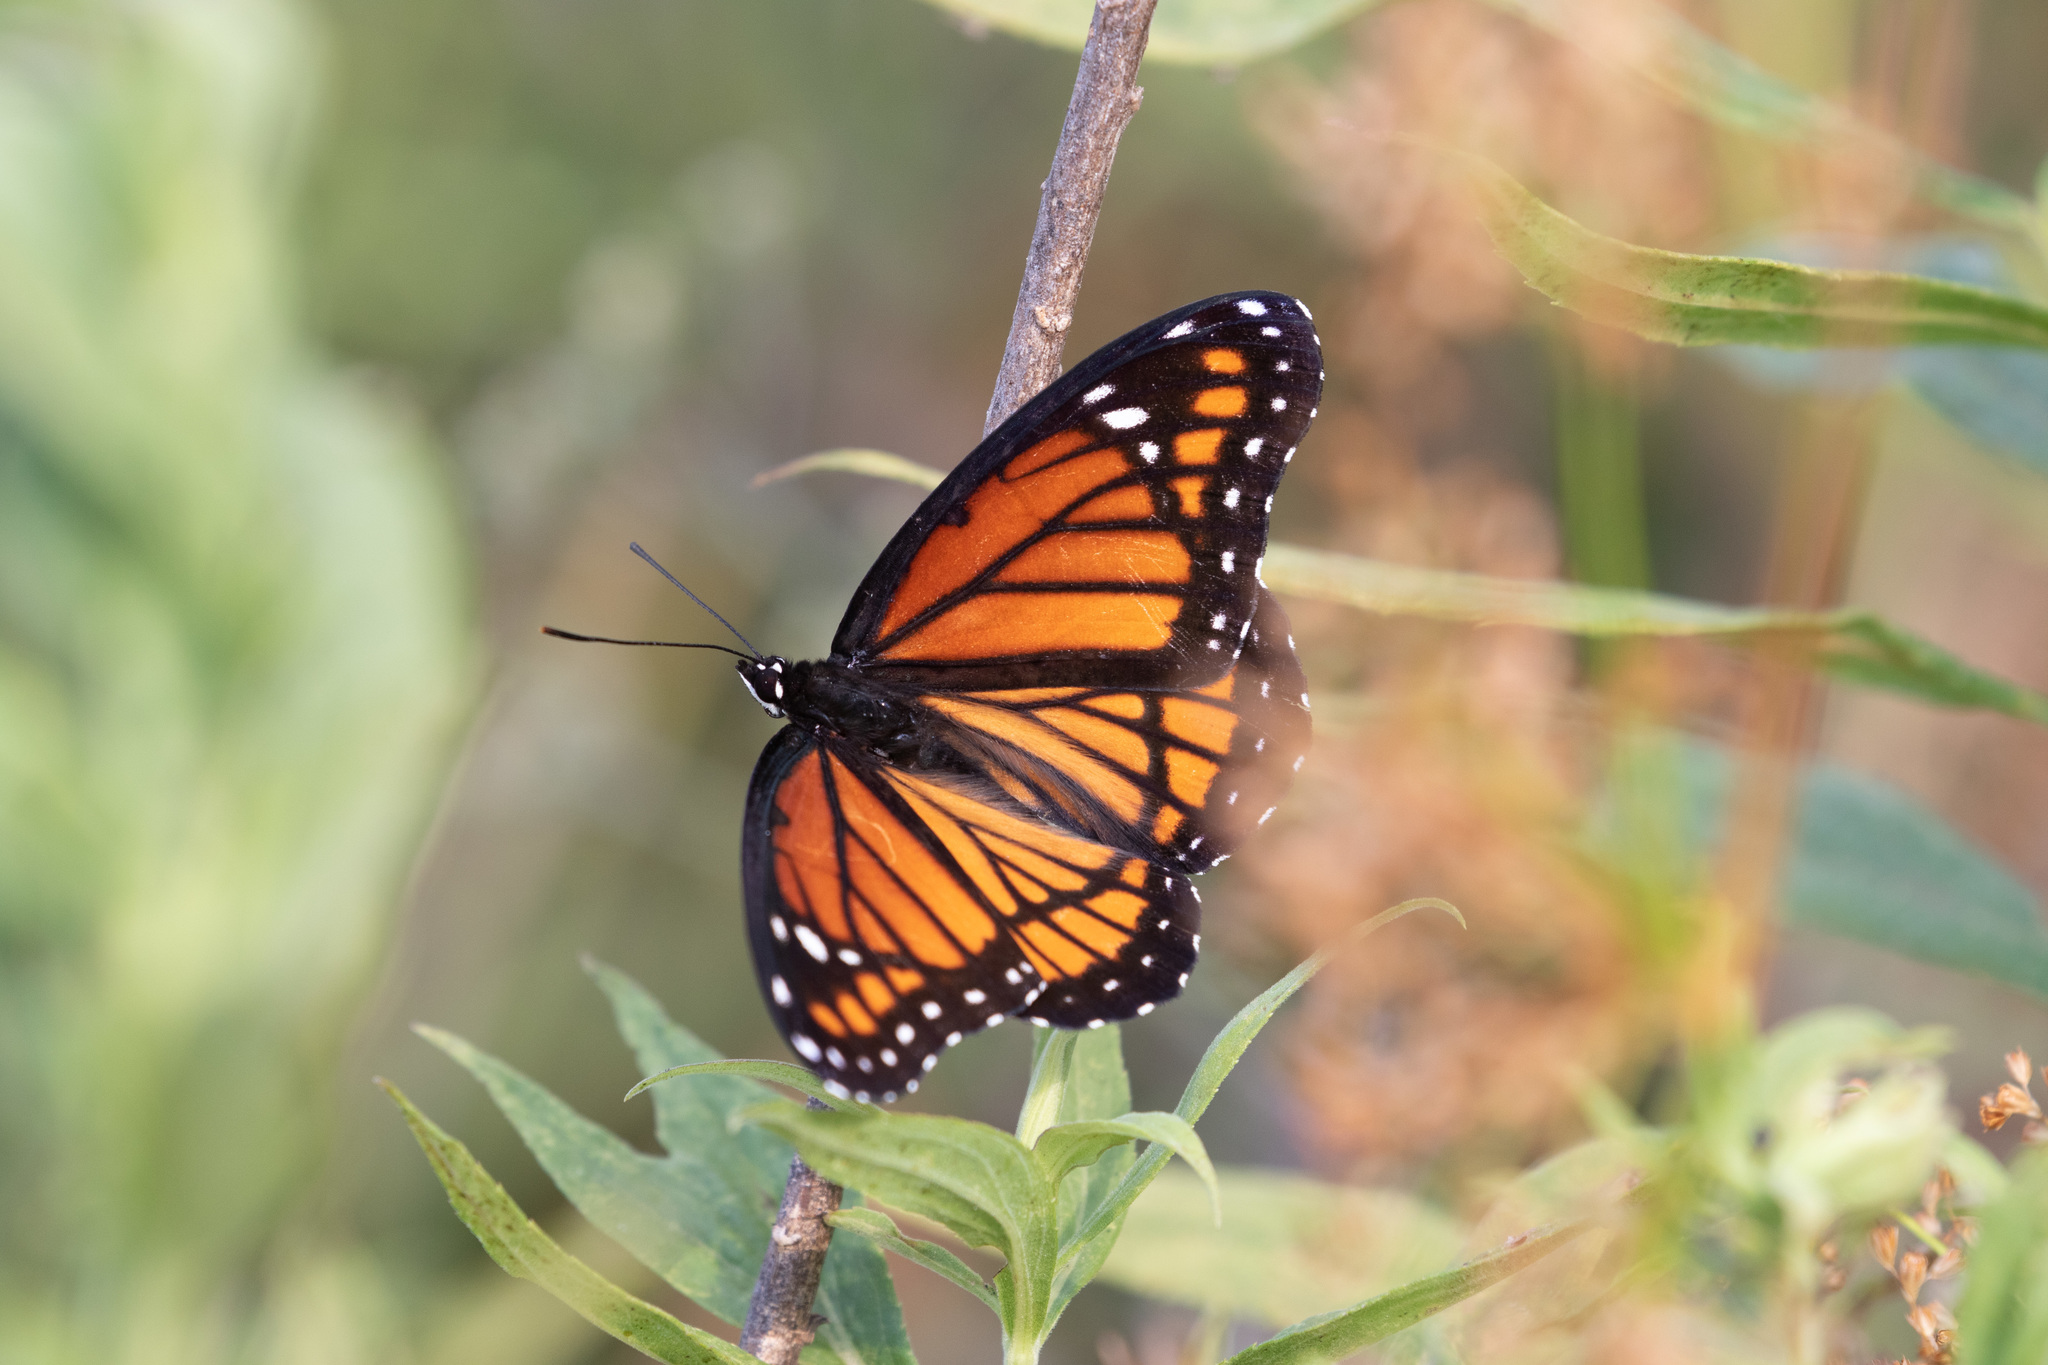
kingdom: Animalia
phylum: Arthropoda
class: Insecta
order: Lepidoptera
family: Nymphalidae
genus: Limenitis
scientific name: Limenitis archippus
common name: Viceroy
